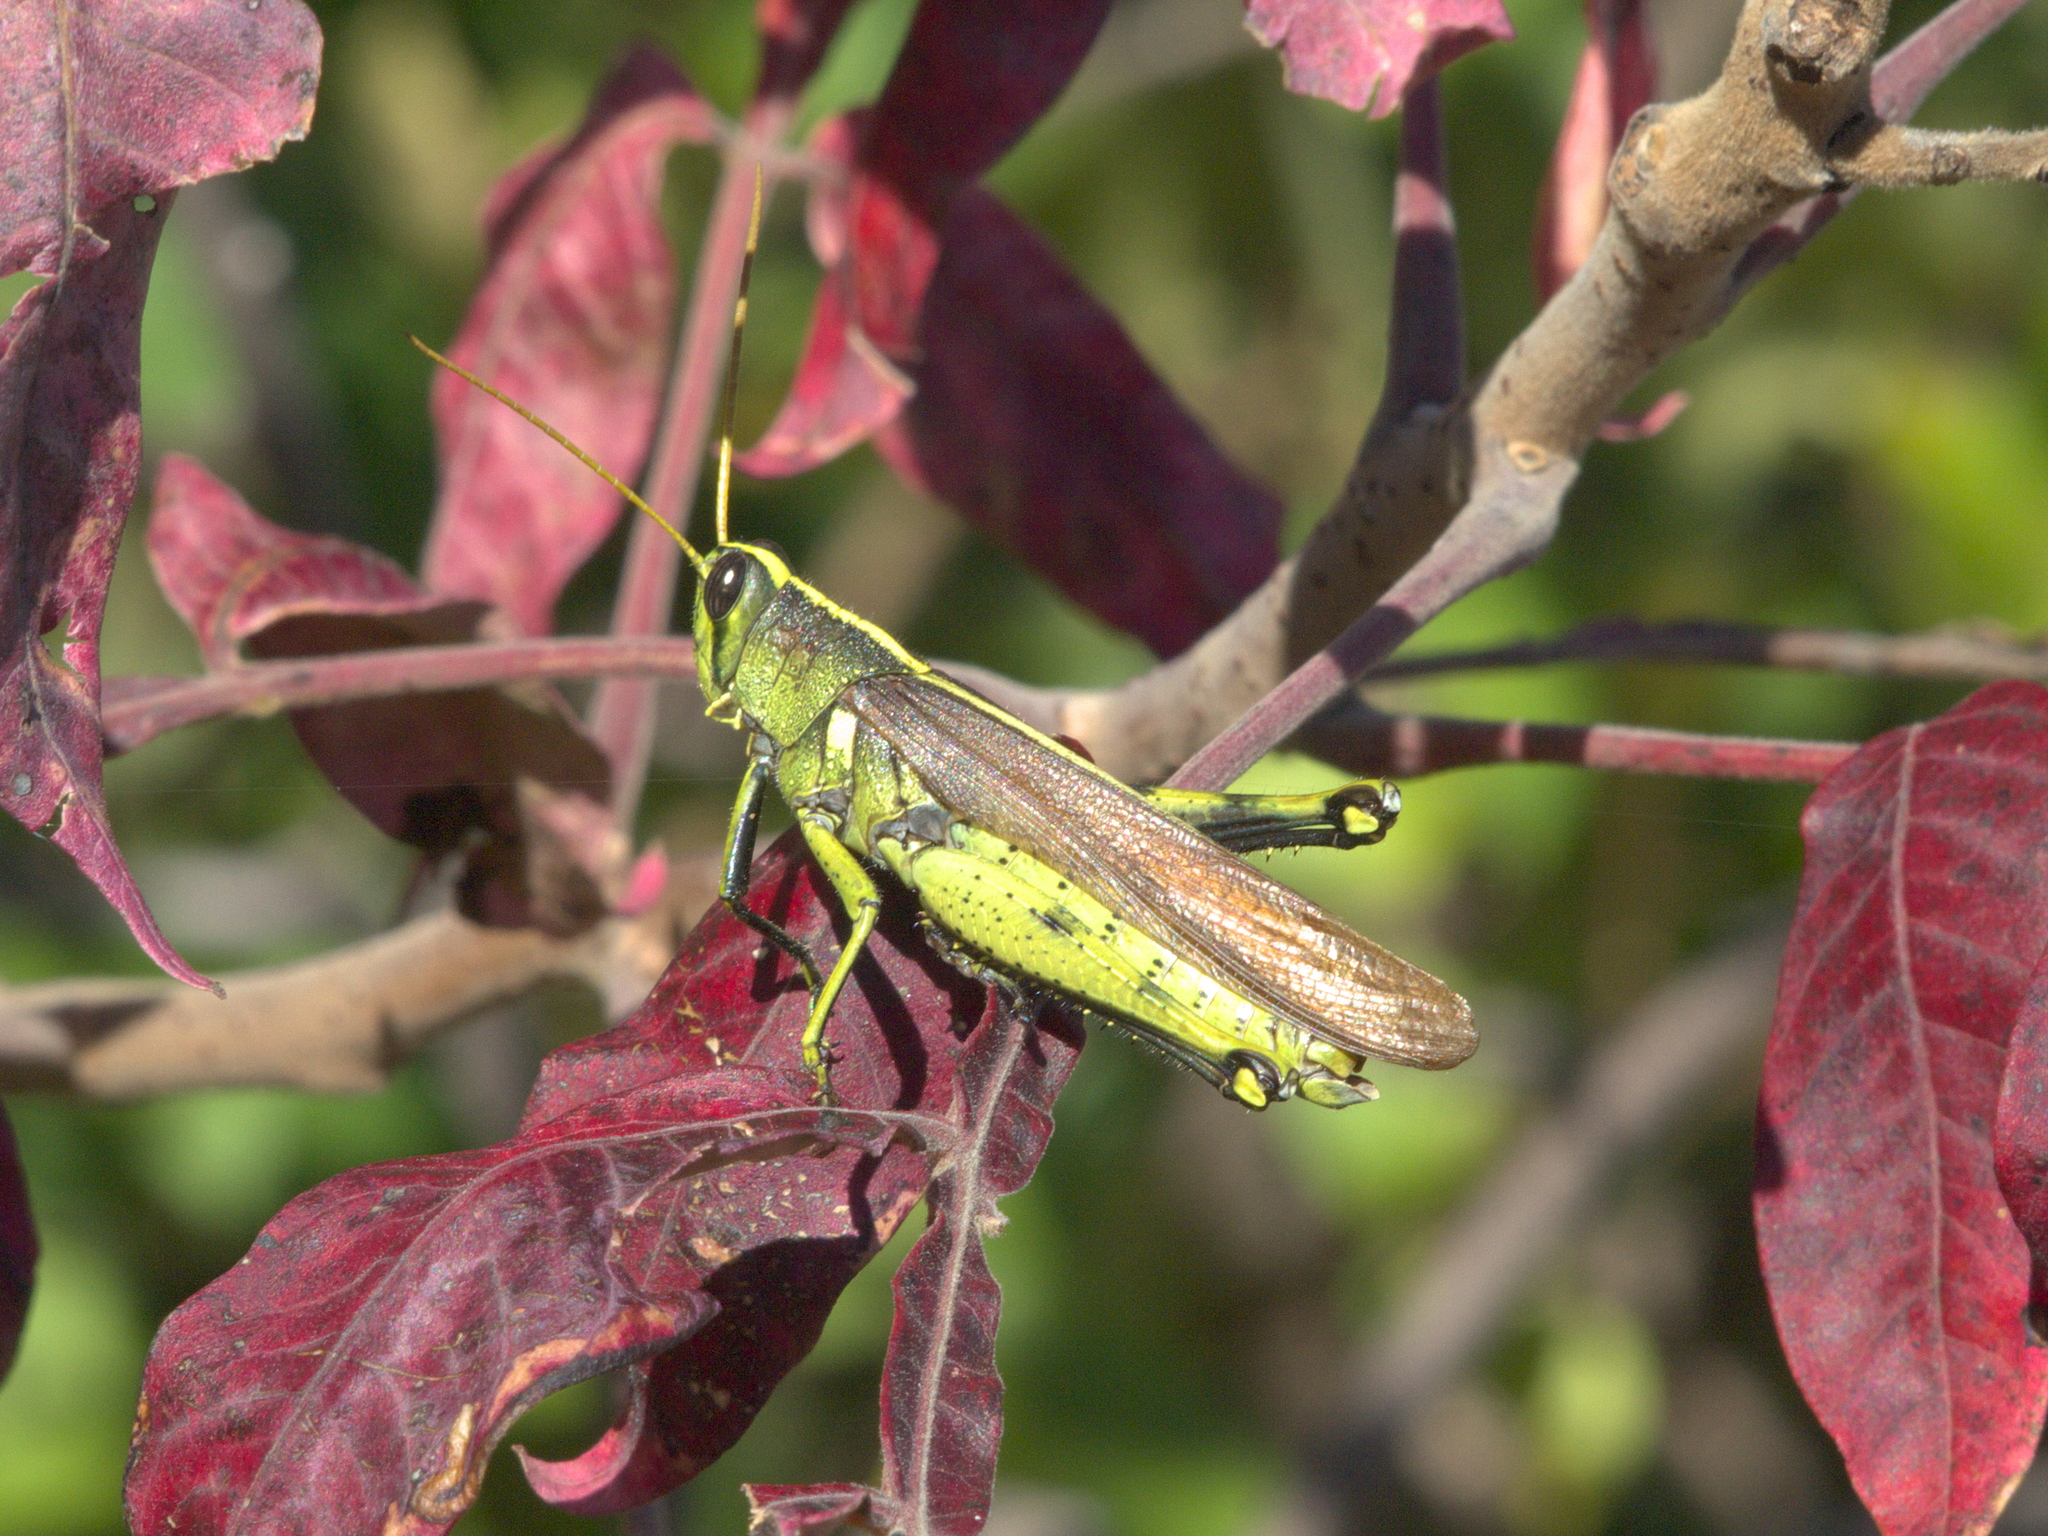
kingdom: Animalia
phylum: Arthropoda
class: Insecta
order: Orthoptera
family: Acrididae
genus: Schistocerca
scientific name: Schistocerca obscura
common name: Obscure bird grasshopper
